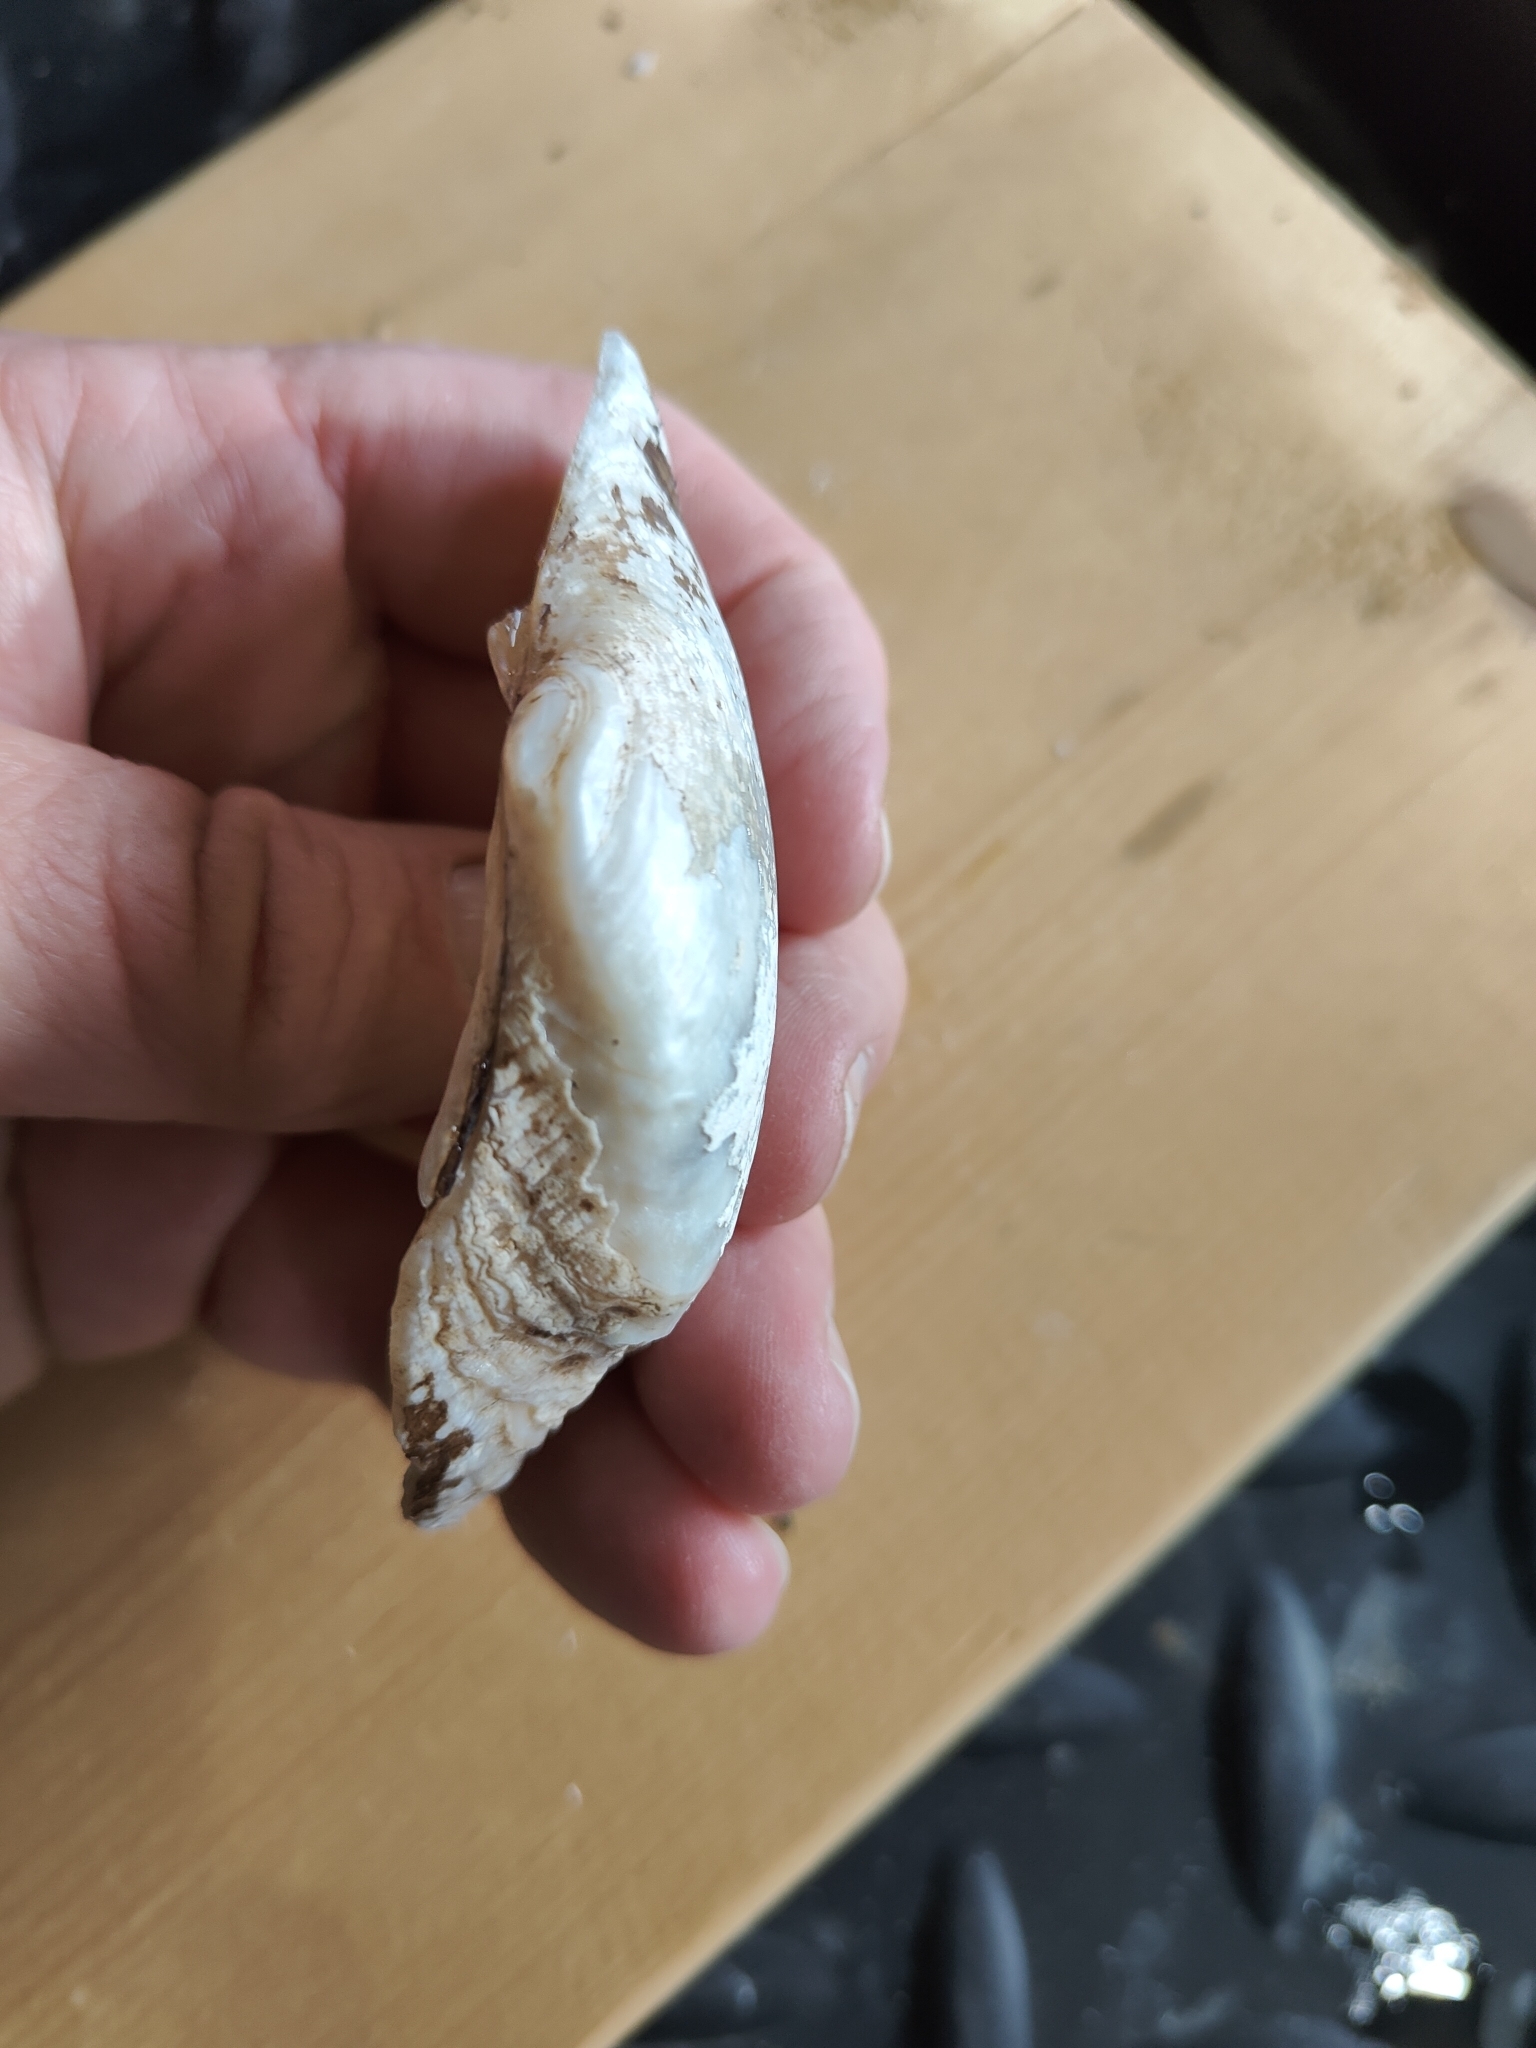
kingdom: Animalia
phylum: Mollusca
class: Bivalvia
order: Unionida
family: Unionidae
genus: Alasmidonta
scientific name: Alasmidonta marginata
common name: Elktoe
